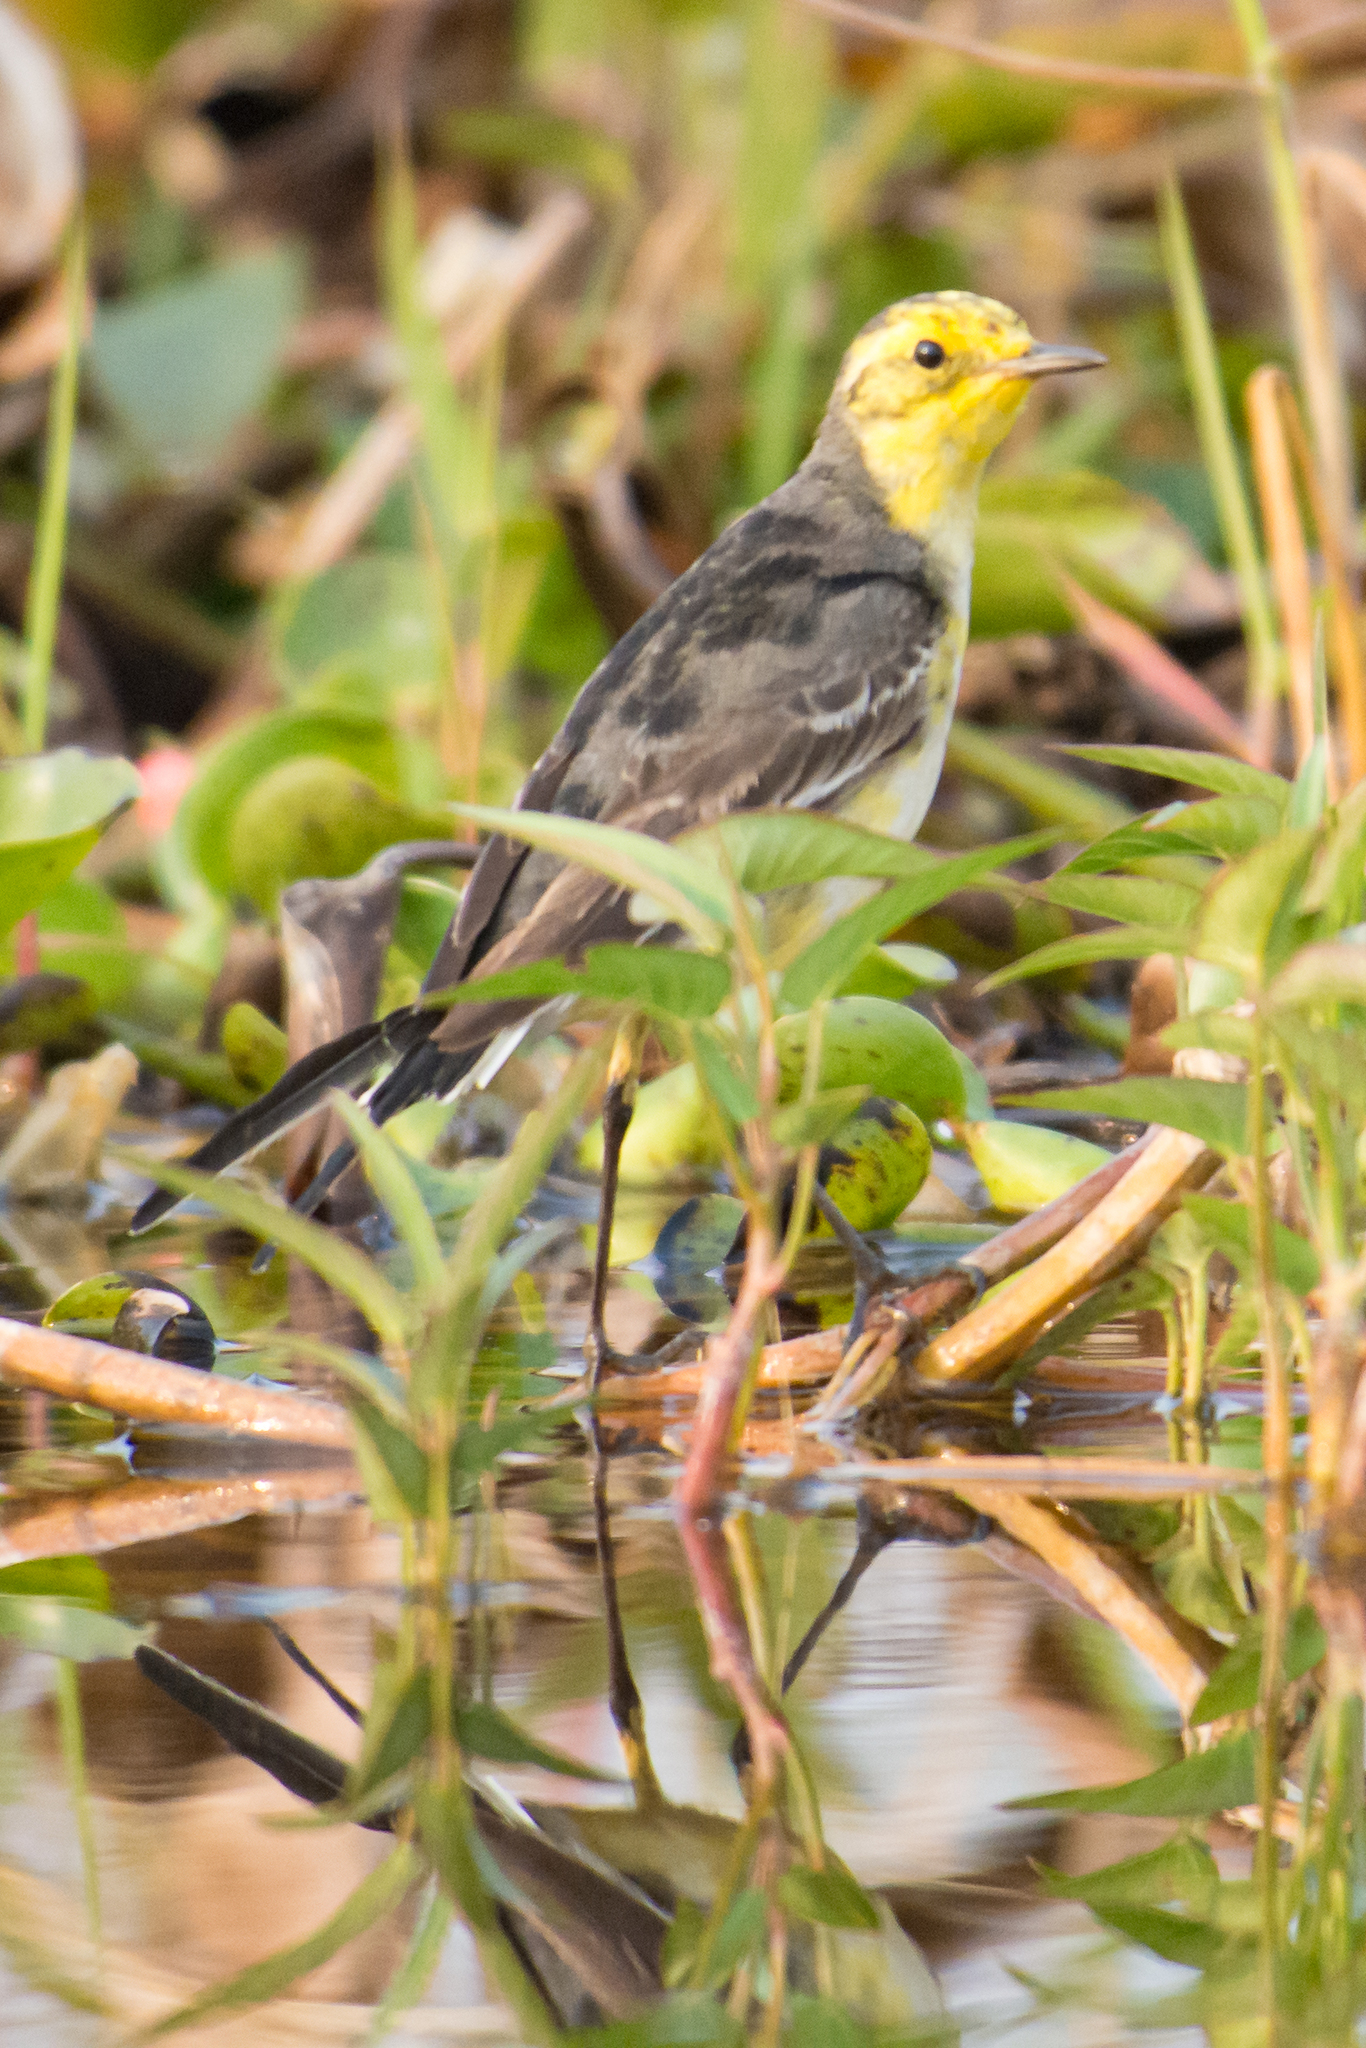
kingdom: Animalia
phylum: Chordata
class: Aves
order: Passeriformes
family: Motacillidae
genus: Motacilla
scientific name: Motacilla citreola
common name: Citrine wagtail
